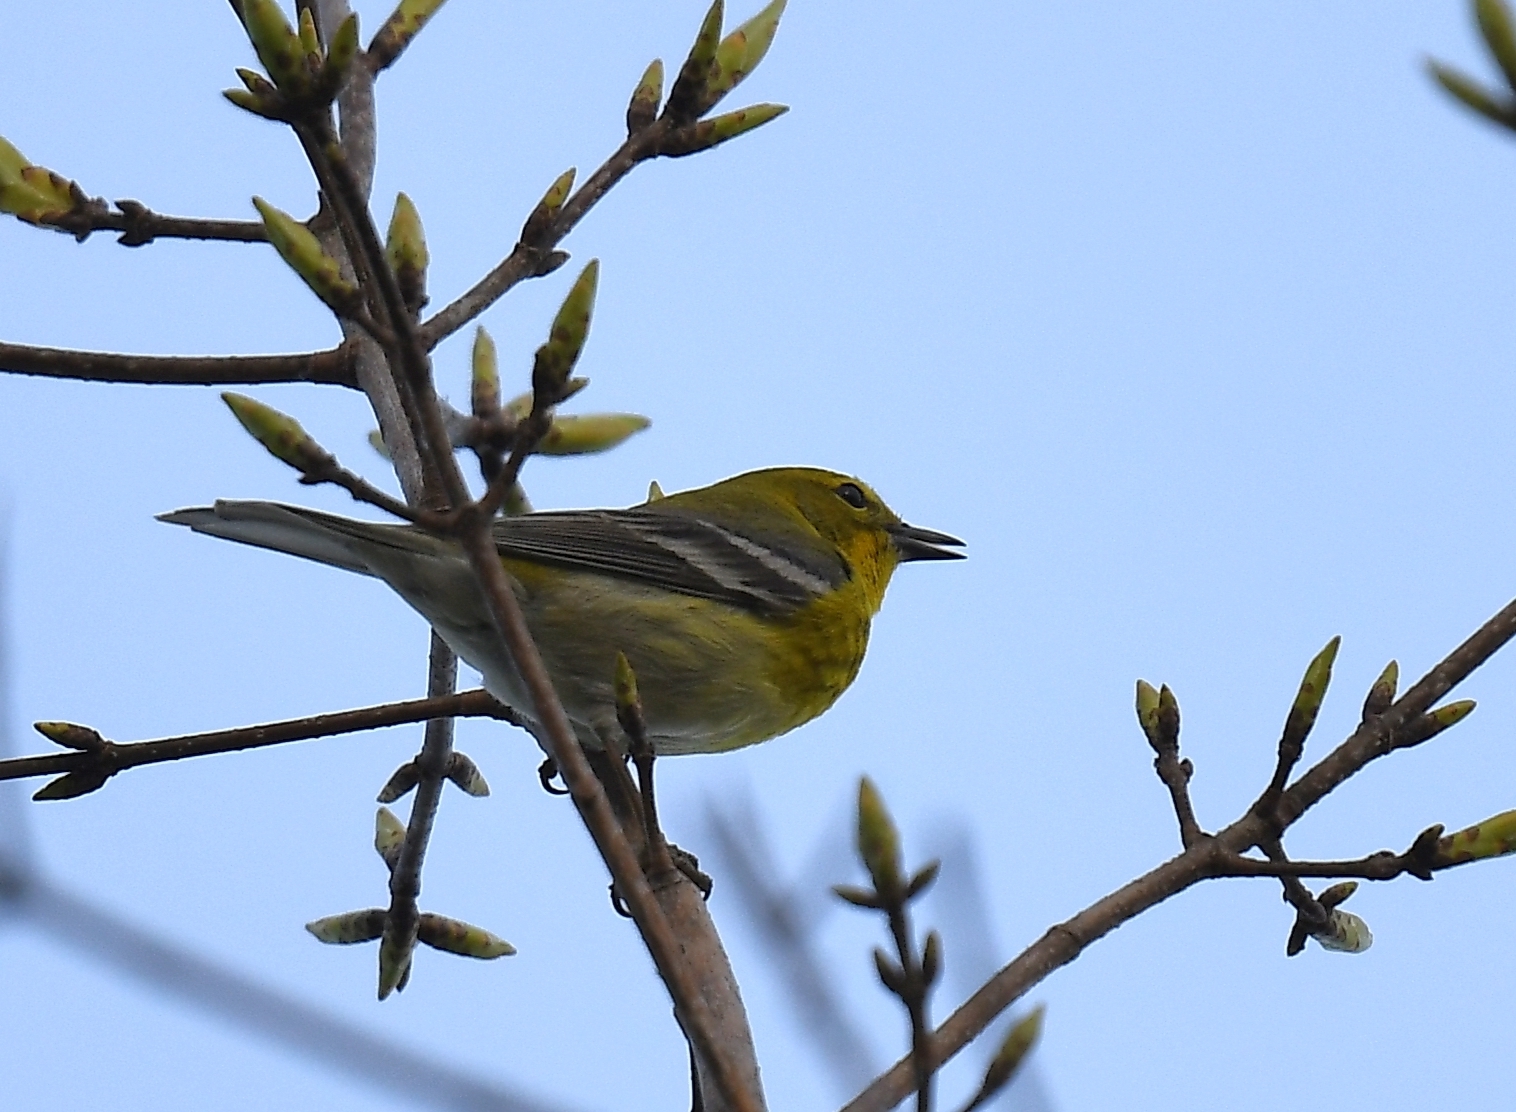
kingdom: Animalia
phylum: Chordata
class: Aves
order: Passeriformes
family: Parulidae
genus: Setophaga
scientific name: Setophaga pinus
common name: Pine warbler
